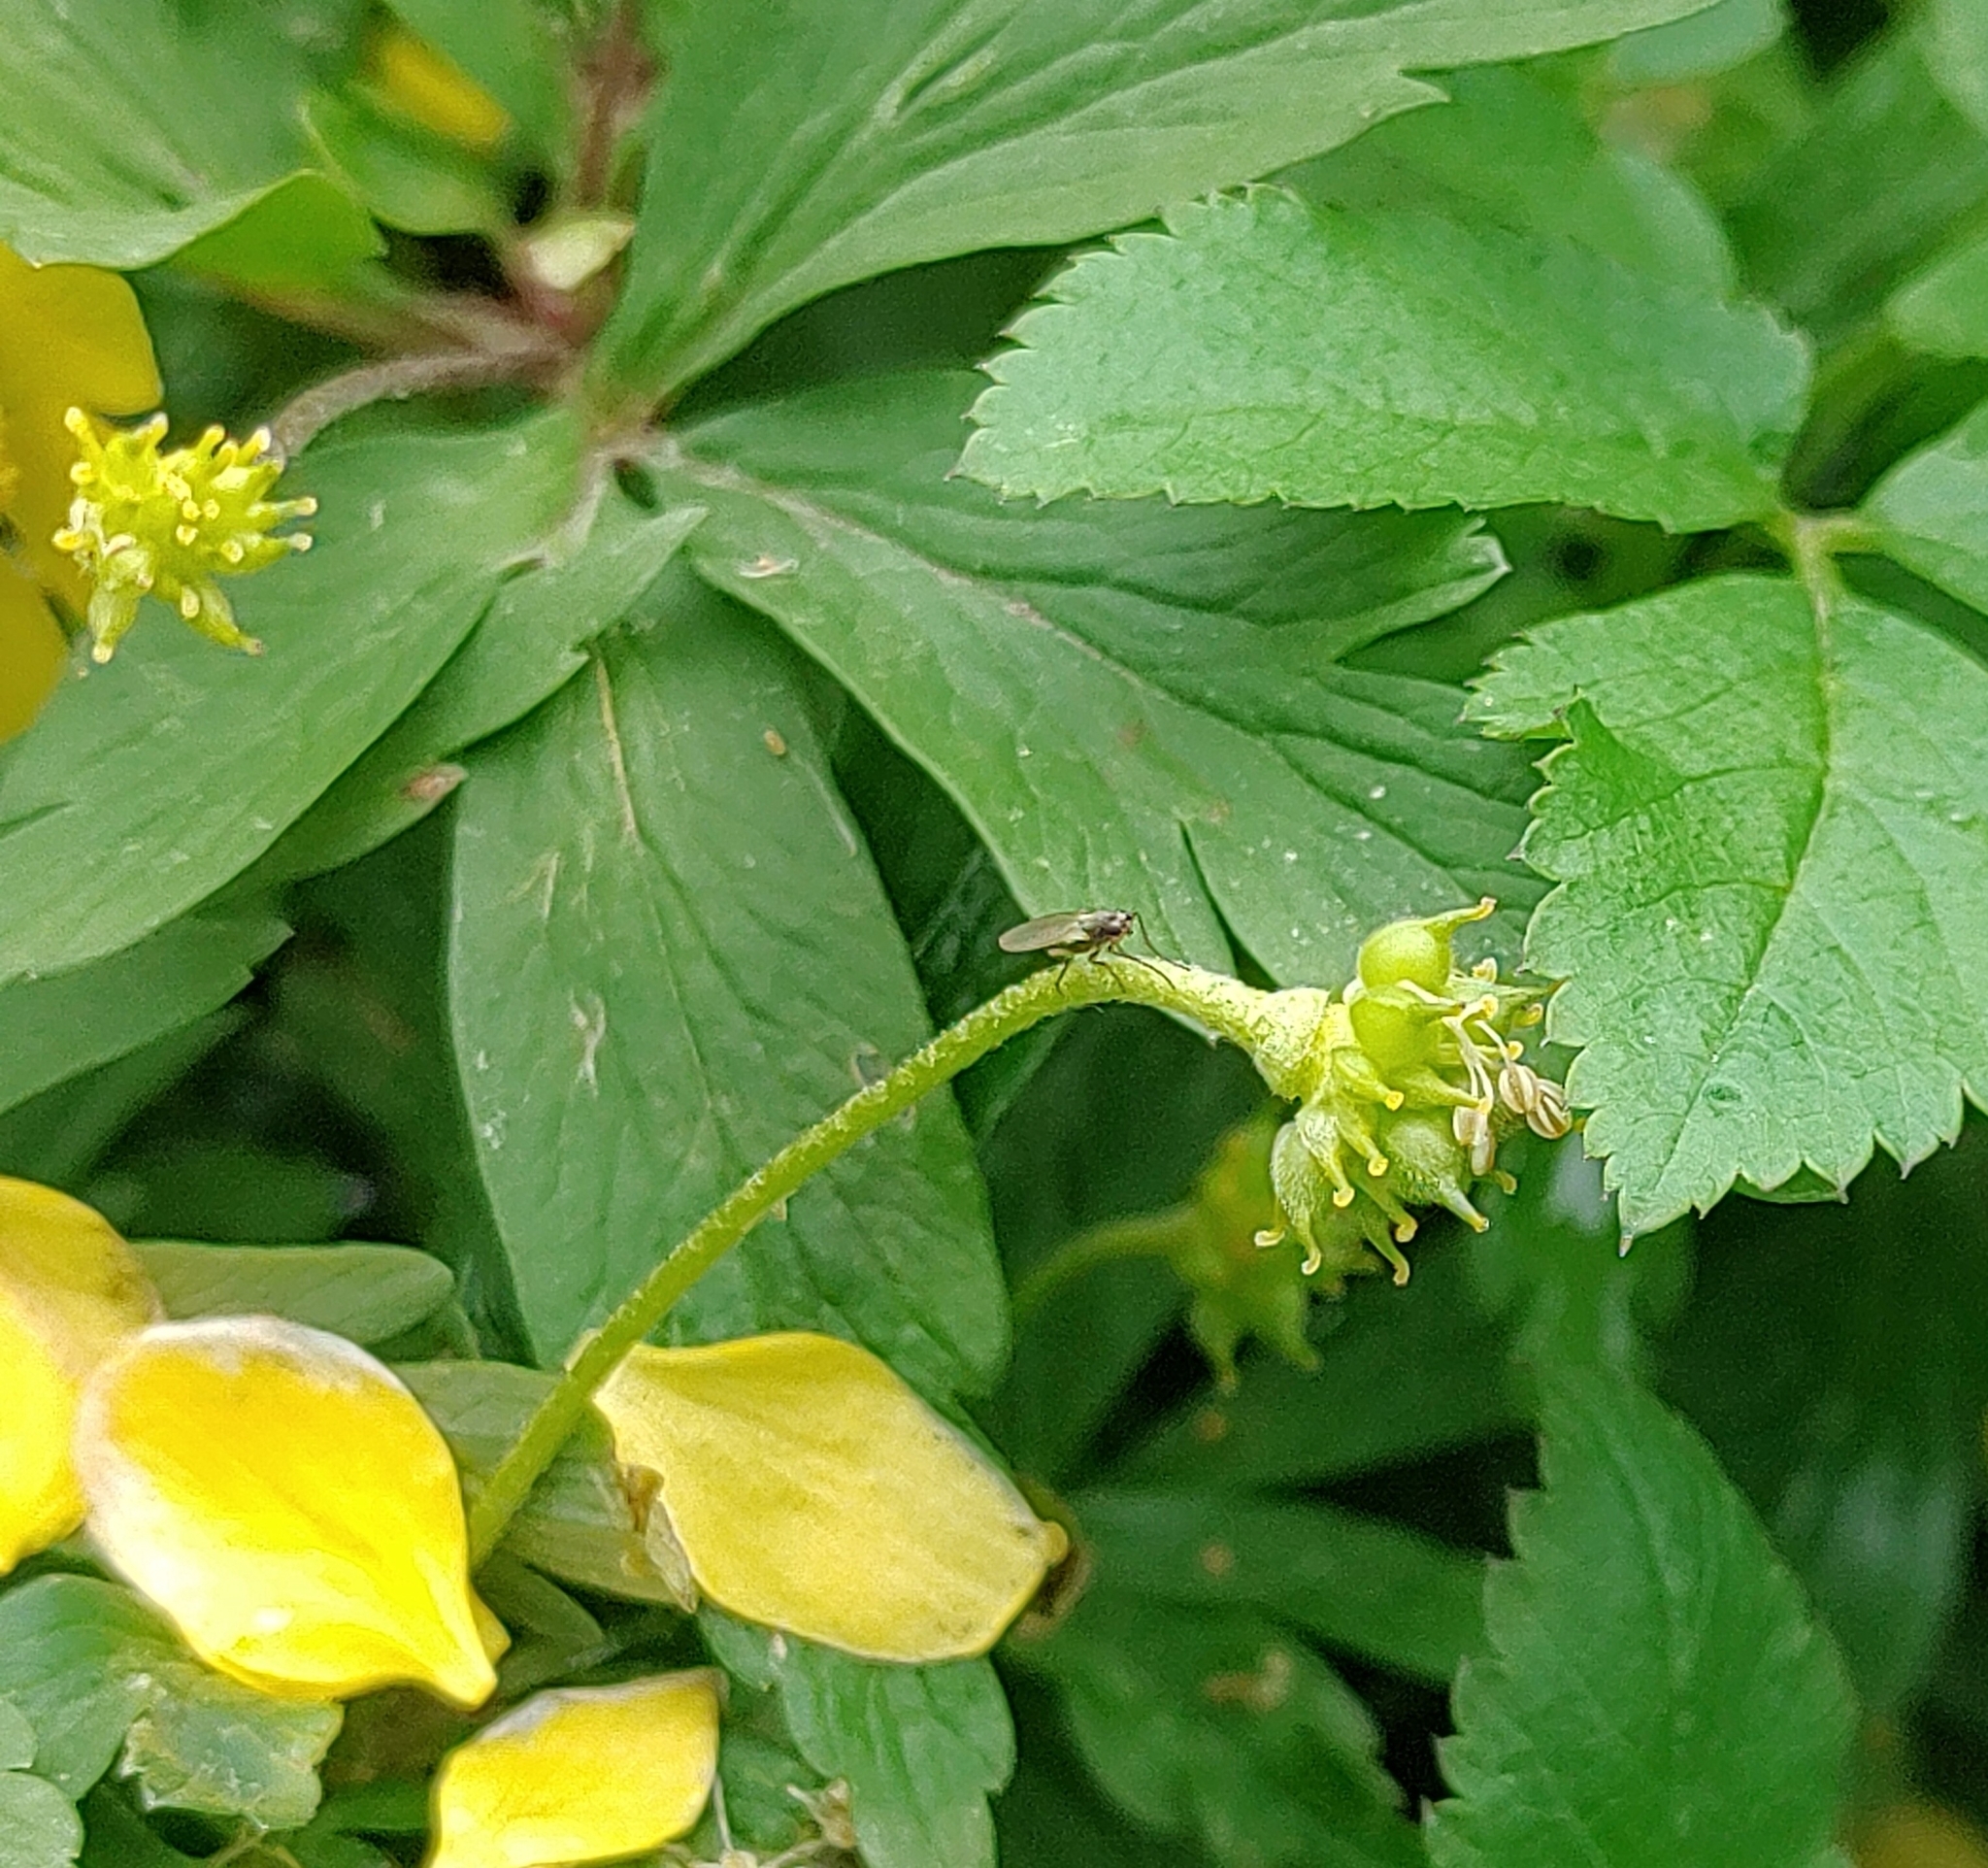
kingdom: Plantae
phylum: Tracheophyta
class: Magnoliopsida
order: Ranunculales
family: Ranunculaceae
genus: Anemone
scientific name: Anemone ranunculoides
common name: Yellow anemone
